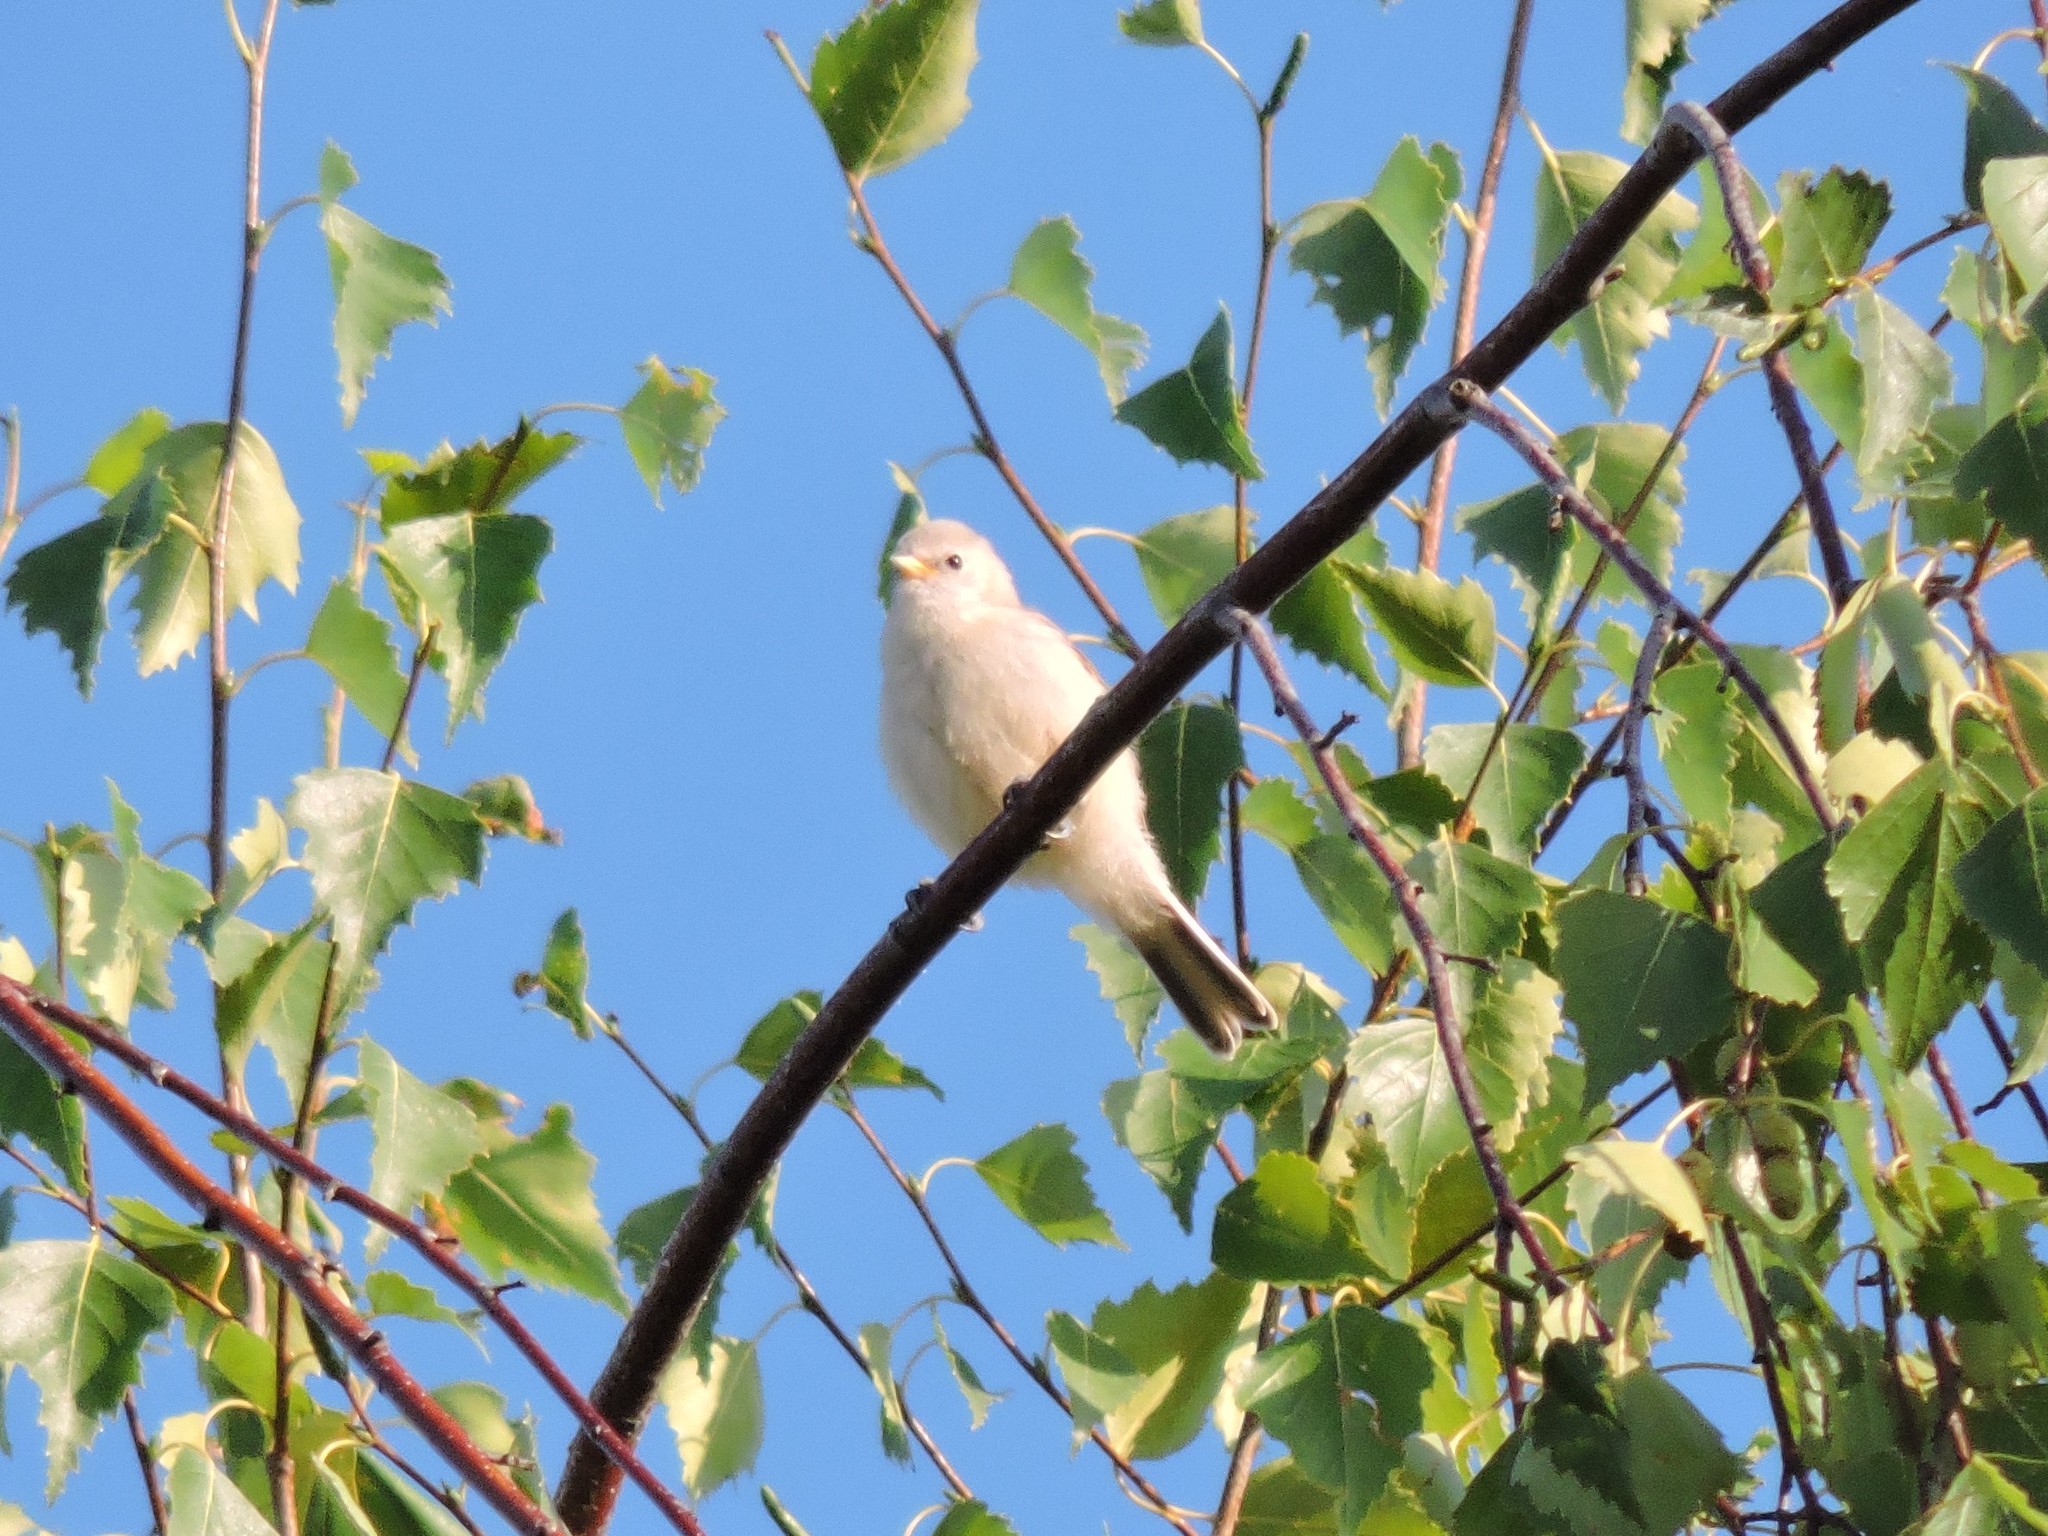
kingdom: Animalia
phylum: Chordata
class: Aves
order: Passeriformes
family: Remizidae
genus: Remiz
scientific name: Remiz pendulinus
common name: Eurasian penduline tit
